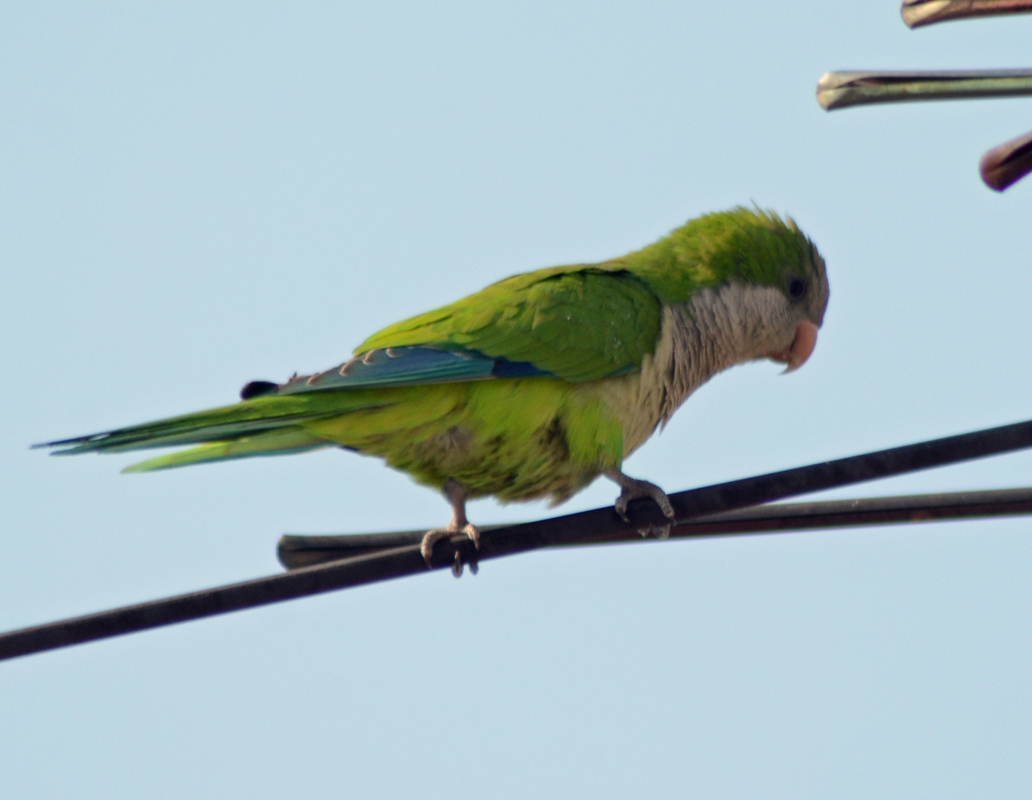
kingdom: Animalia
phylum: Chordata
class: Aves
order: Psittaciformes
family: Psittacidae
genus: Myiopsitta
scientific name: Myiopsitta monachus
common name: Monk parakeet
